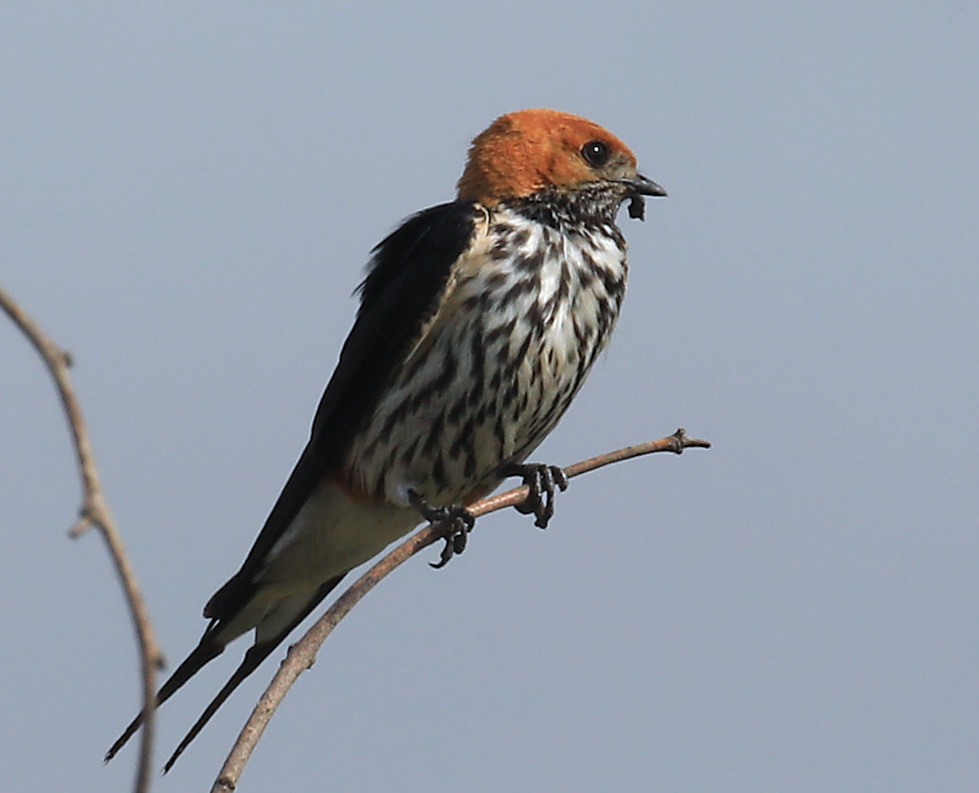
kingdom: Animalia
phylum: Chordata
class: Aves
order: Passeriformes
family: Hirundinidae
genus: Cecropis
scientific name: Cecropis abyssinica
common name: Lesser striped-swallow
